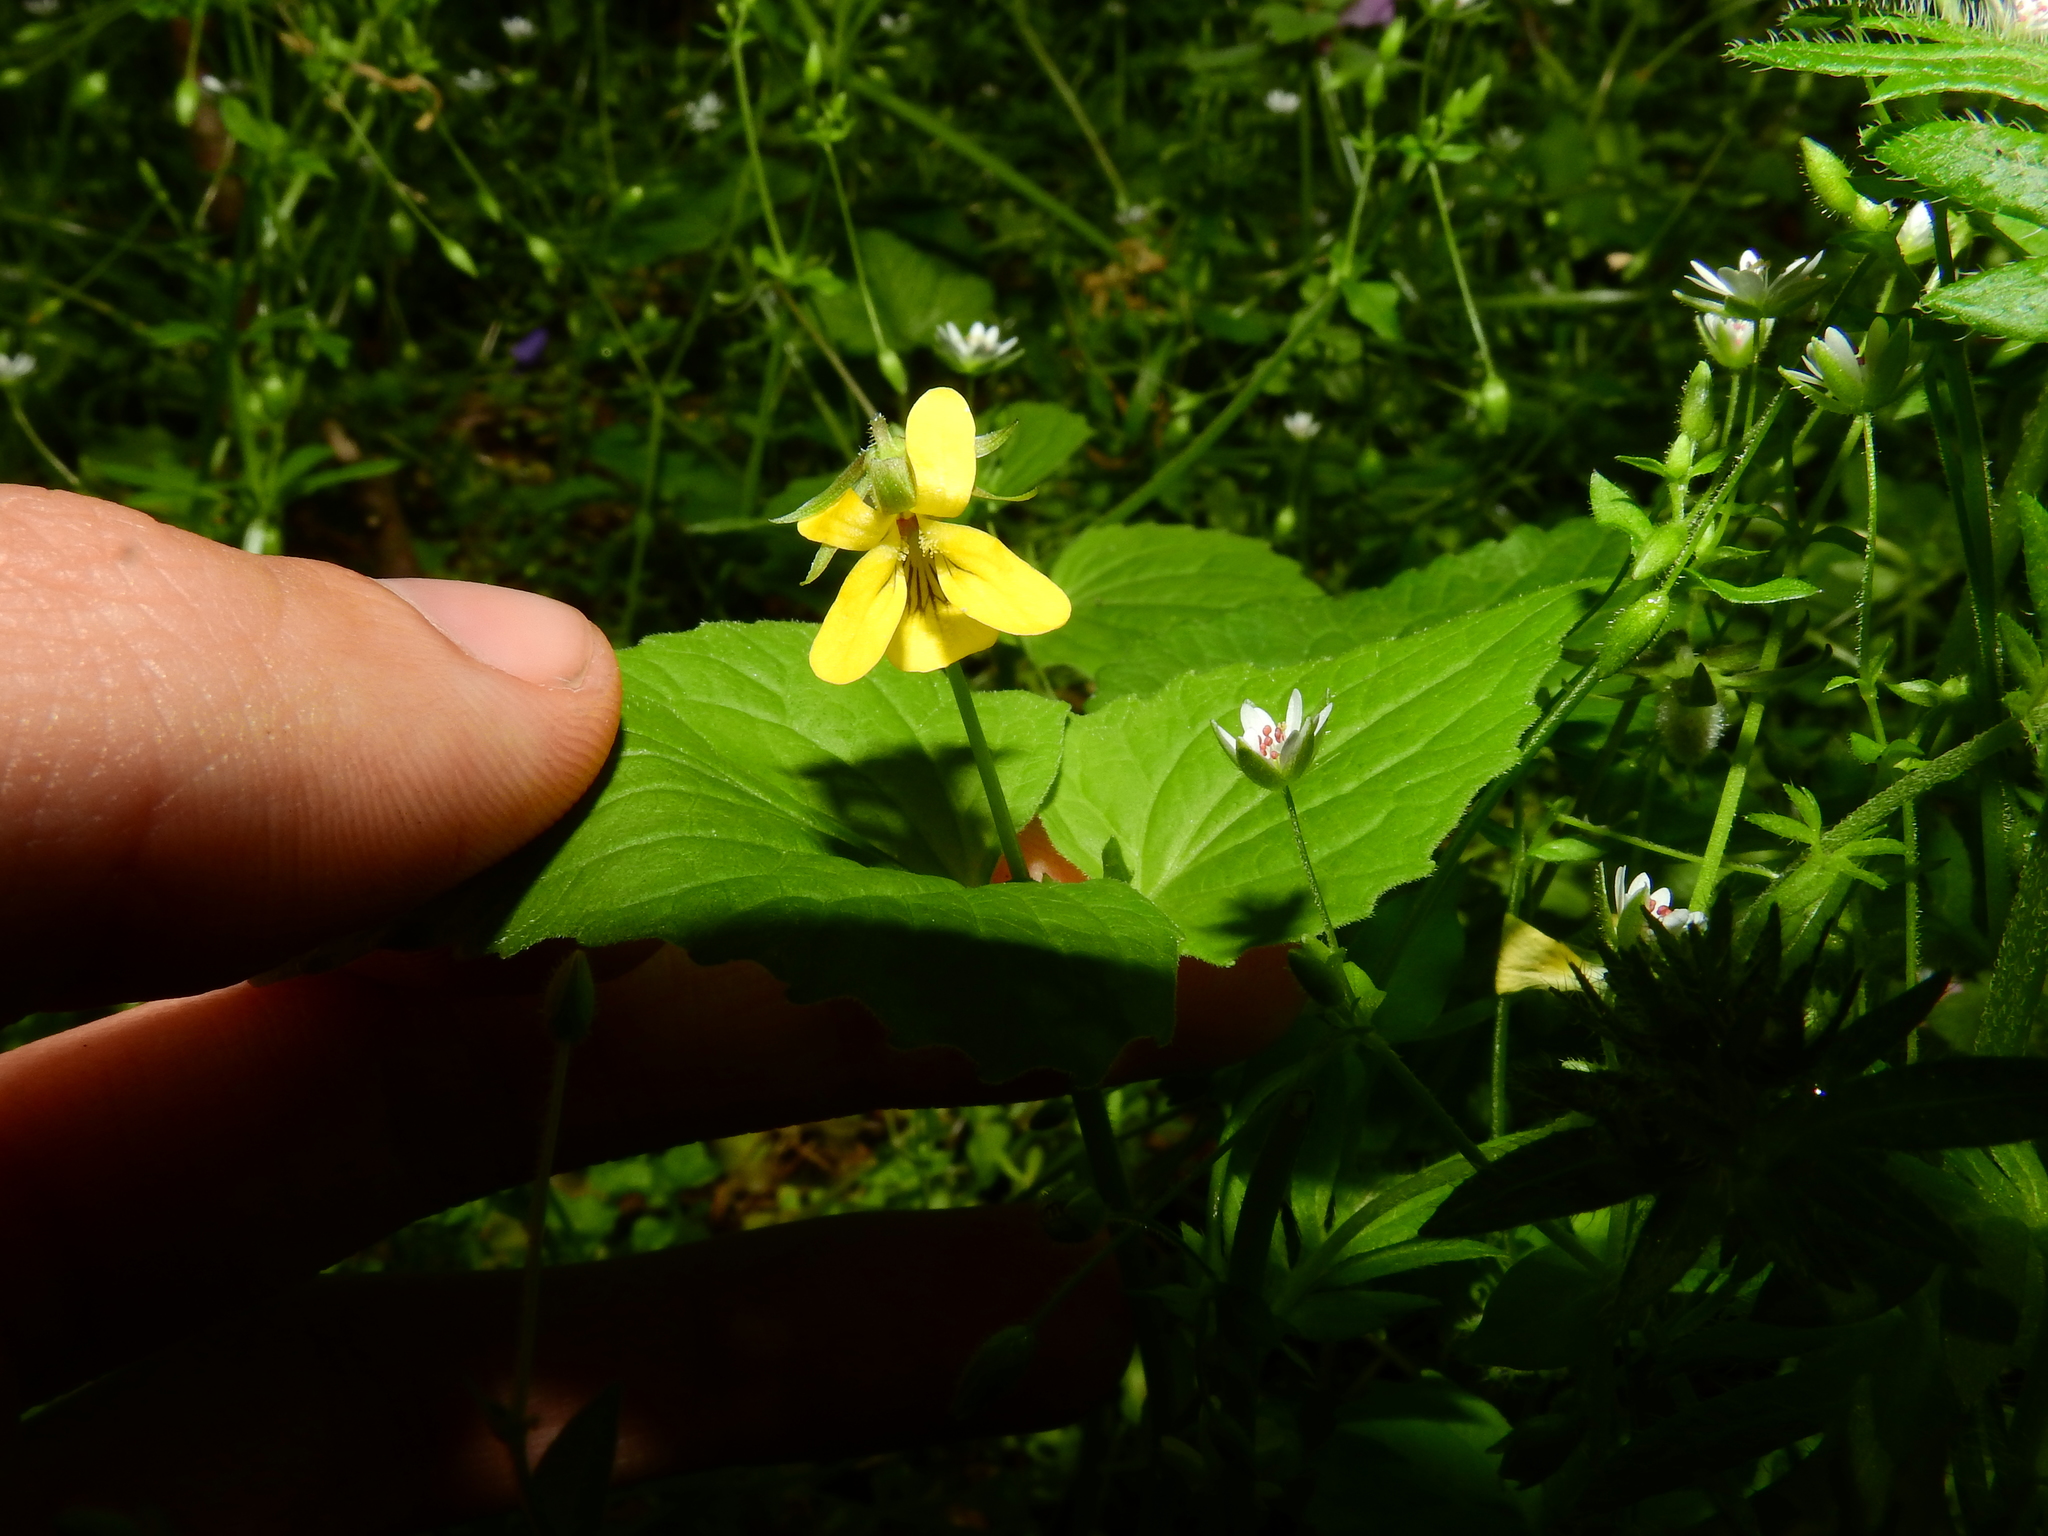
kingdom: Plantae
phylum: Tracheophyta
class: Magnoliopsida
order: Malpighiales
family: Violaceae
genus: Viola
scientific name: Viola eriocarpa
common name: Smooth yellow violet
